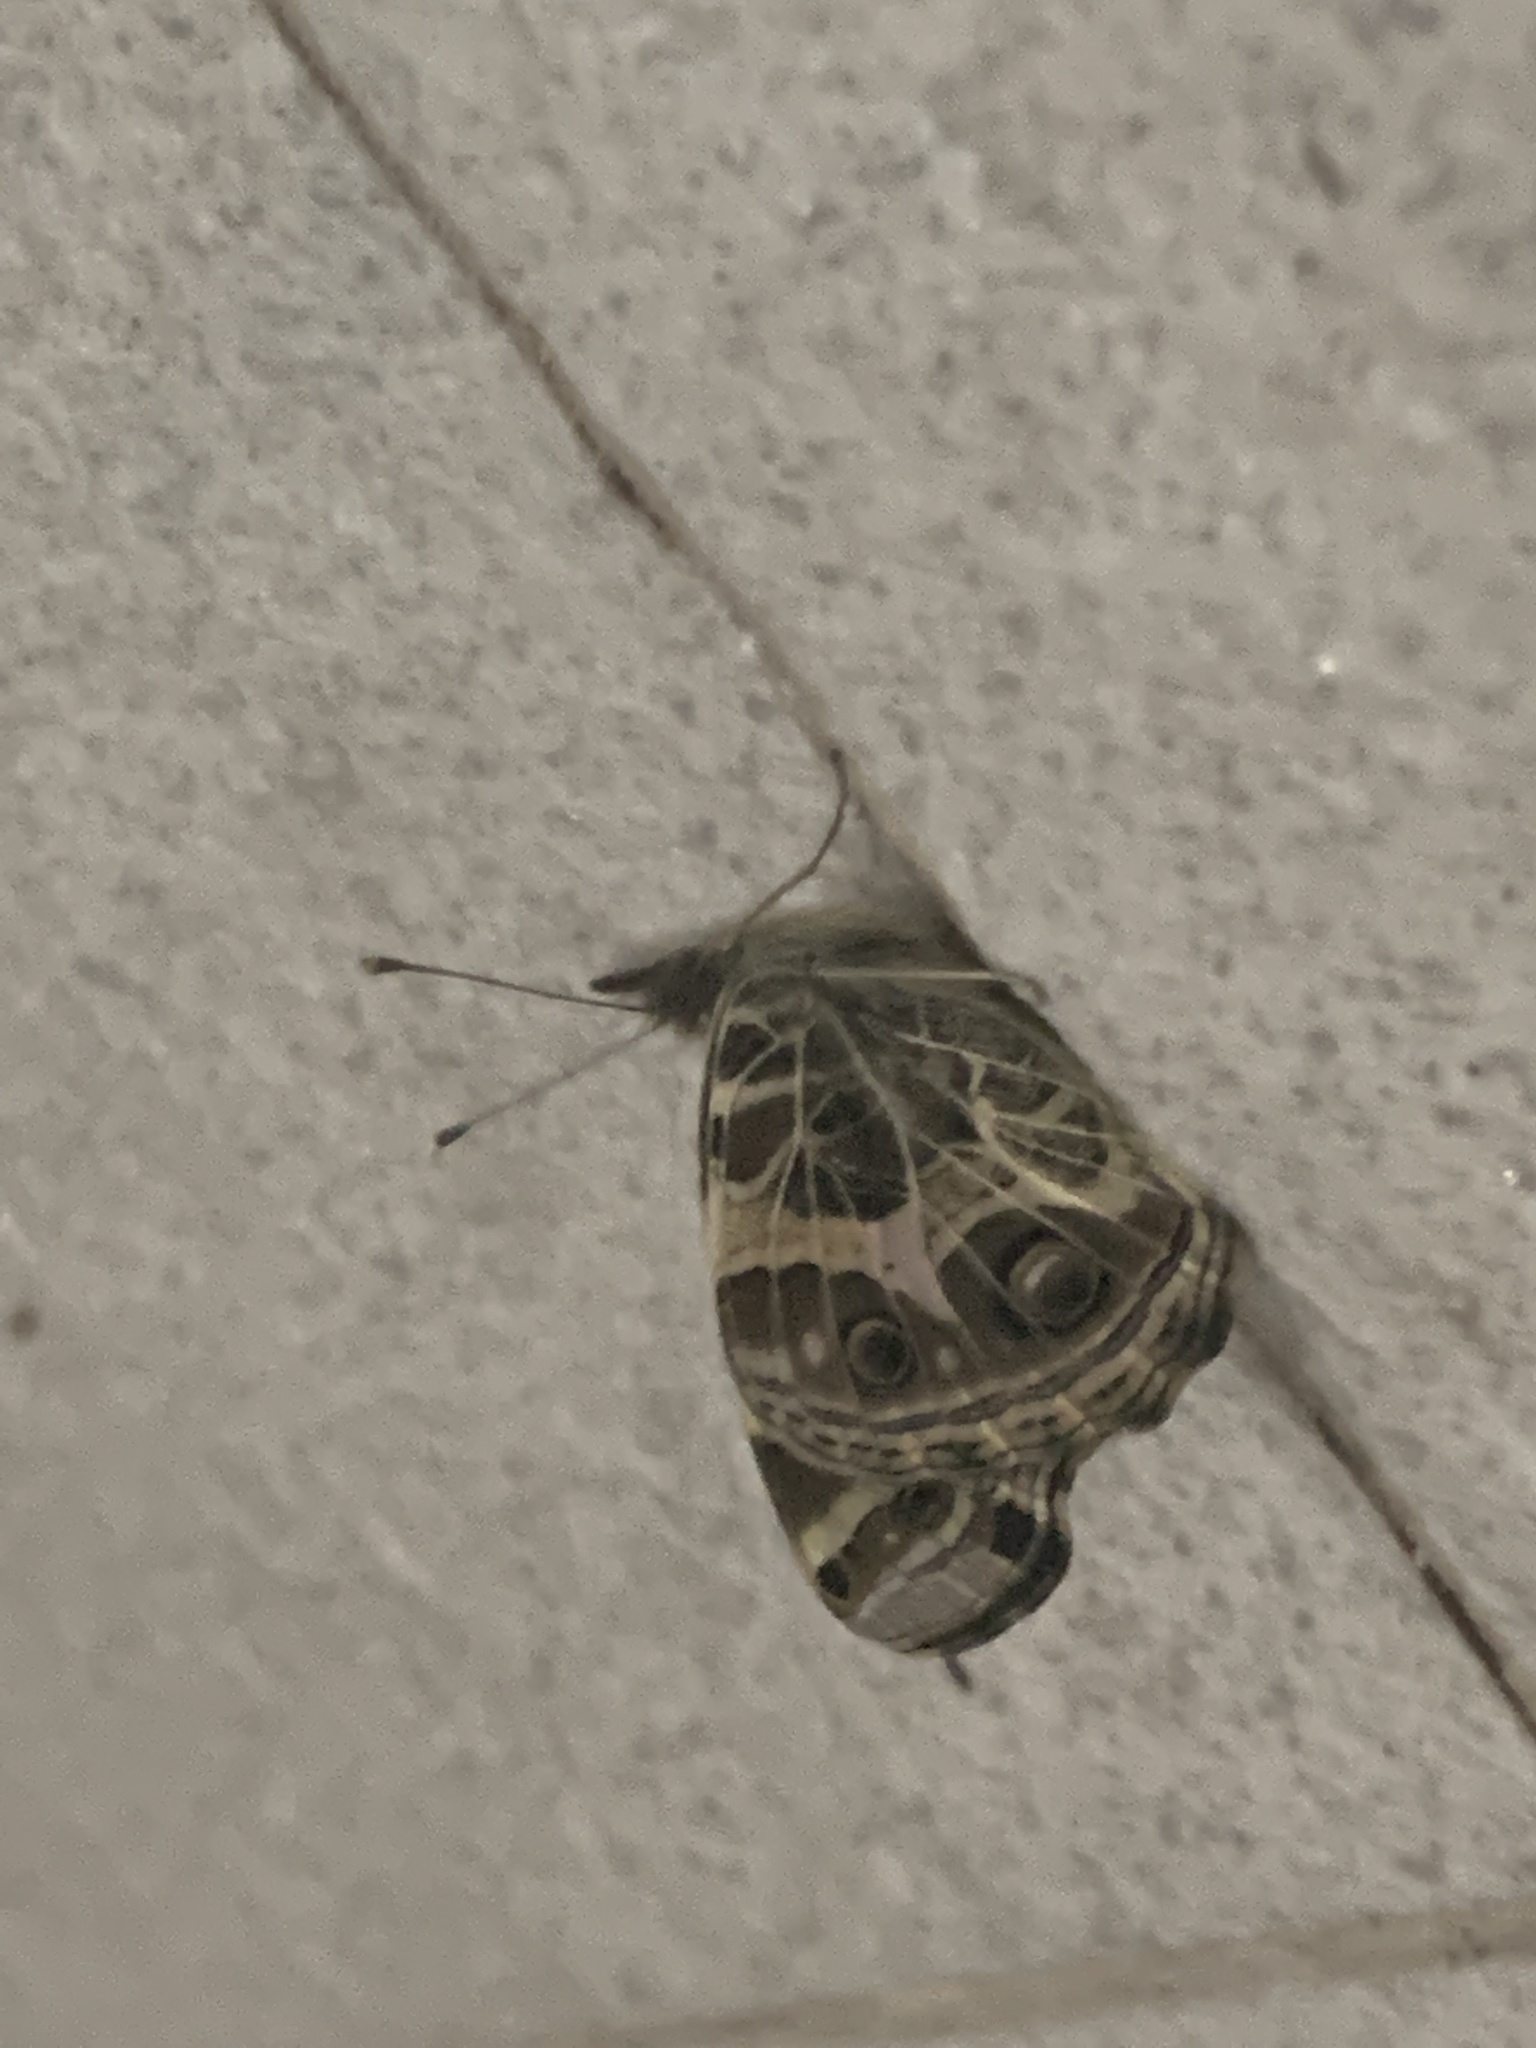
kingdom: Animalia
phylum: Arthropoda
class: Insecta
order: Lepidoptera
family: Nymphalidae
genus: Vanessa
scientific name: Vanessa braziliensis
